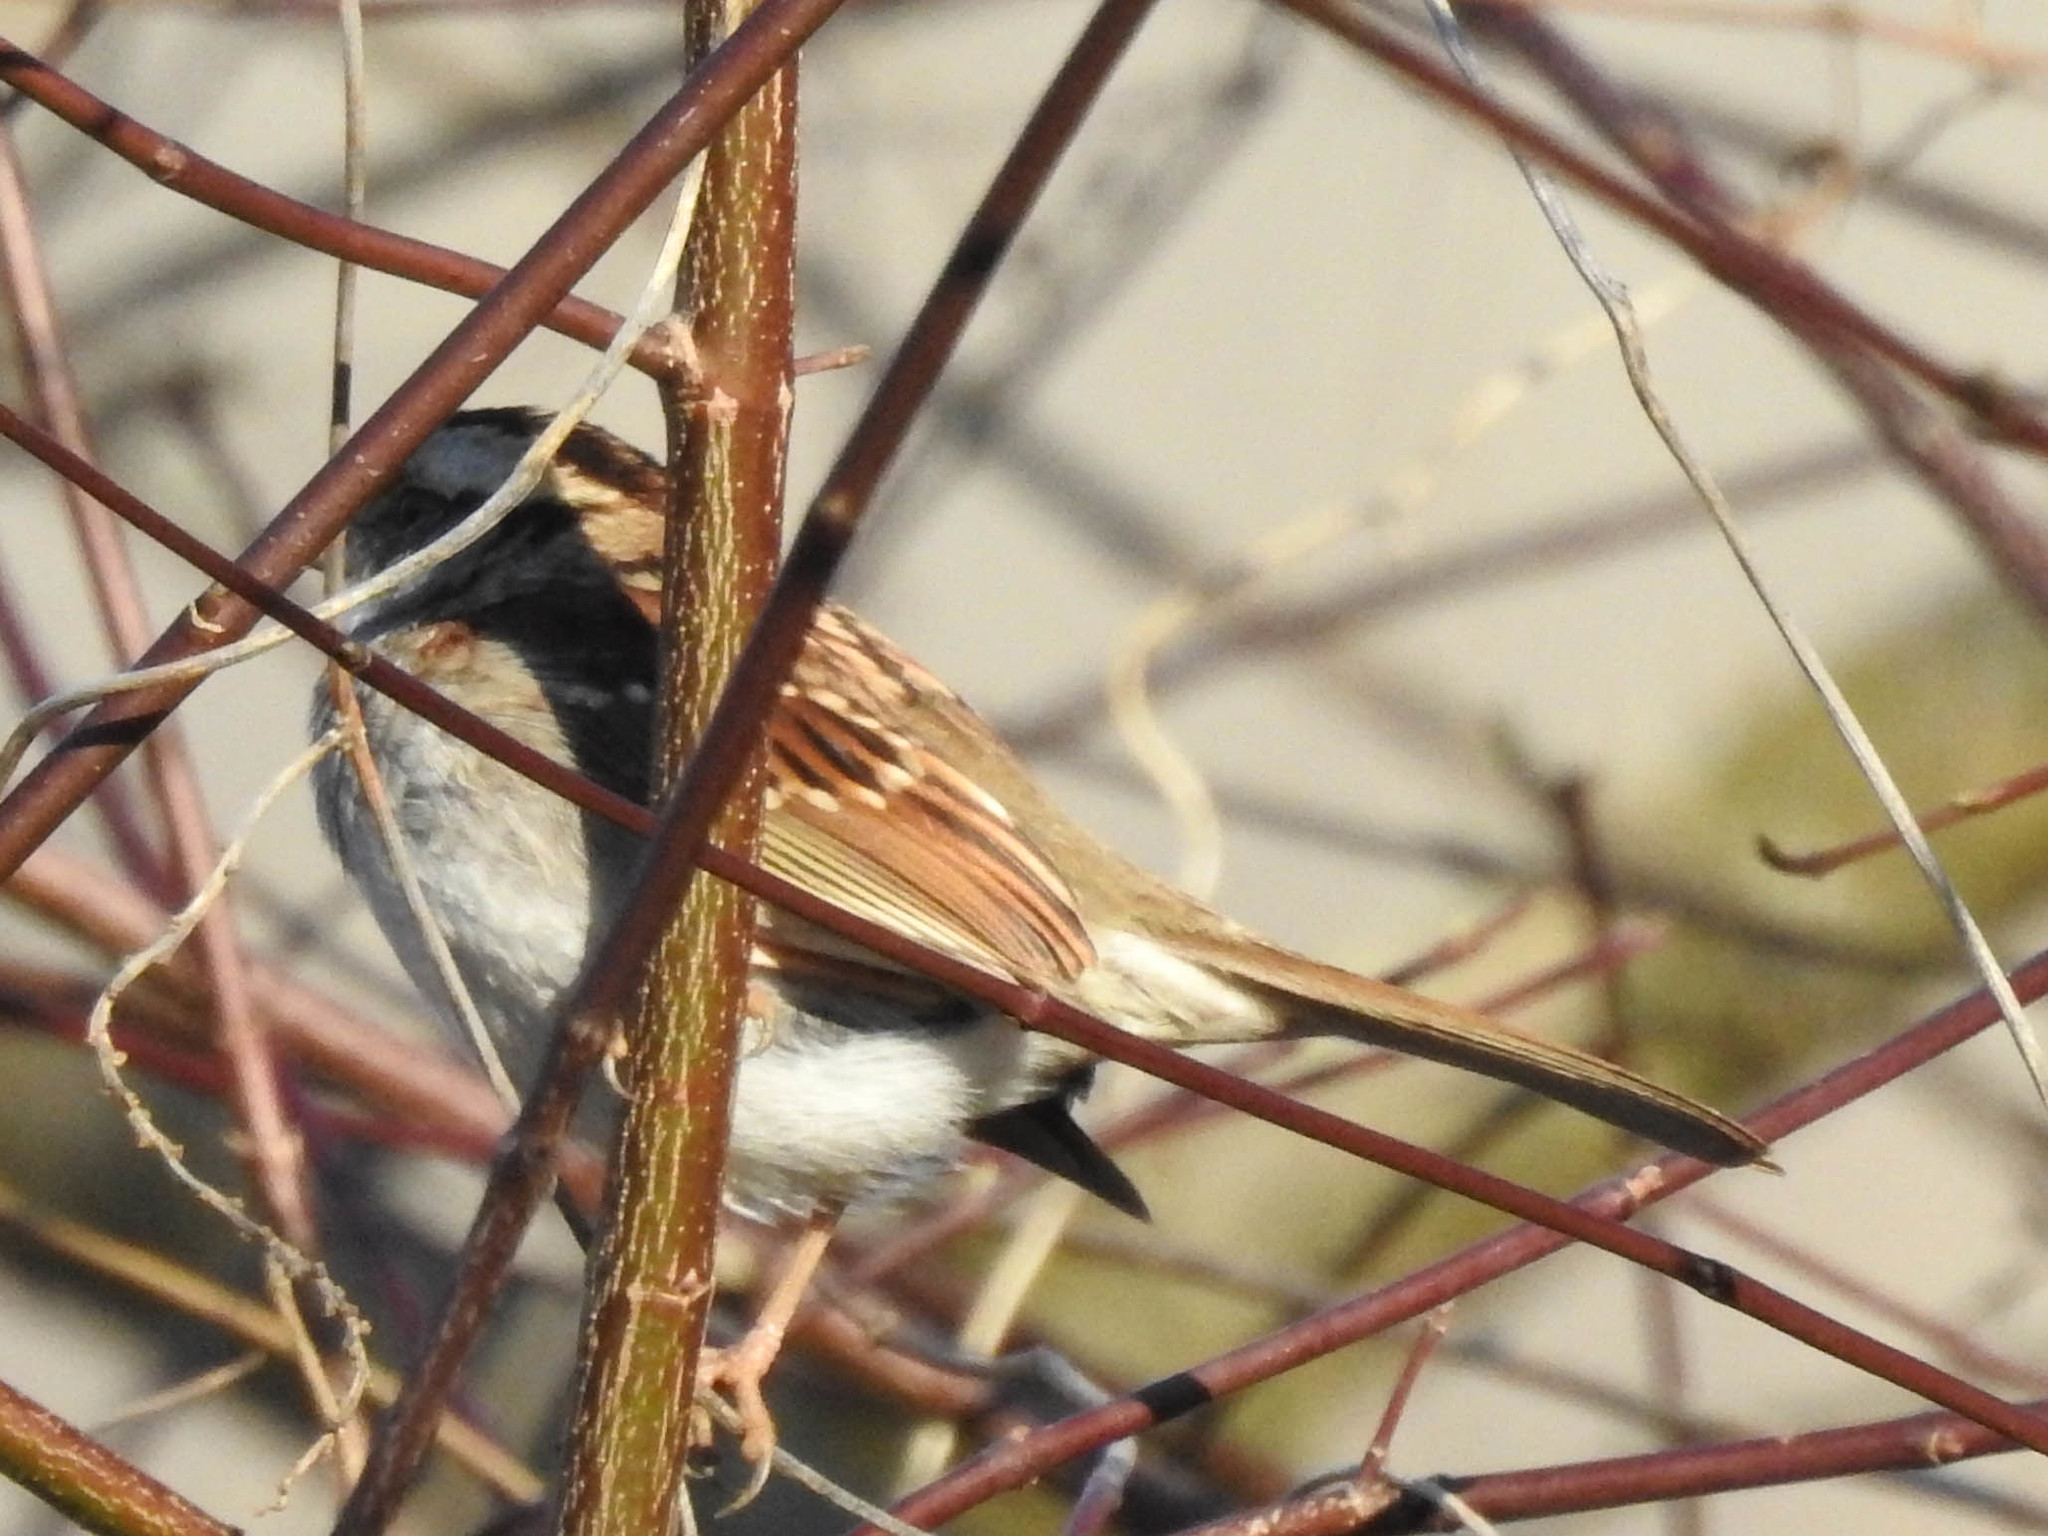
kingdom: Animalia
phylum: Chordata
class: Aves
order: Passeriformes
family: Passerellidae
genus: Zonotrichia
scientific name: Zonotrichia albicollis
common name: White-throated sparrow
